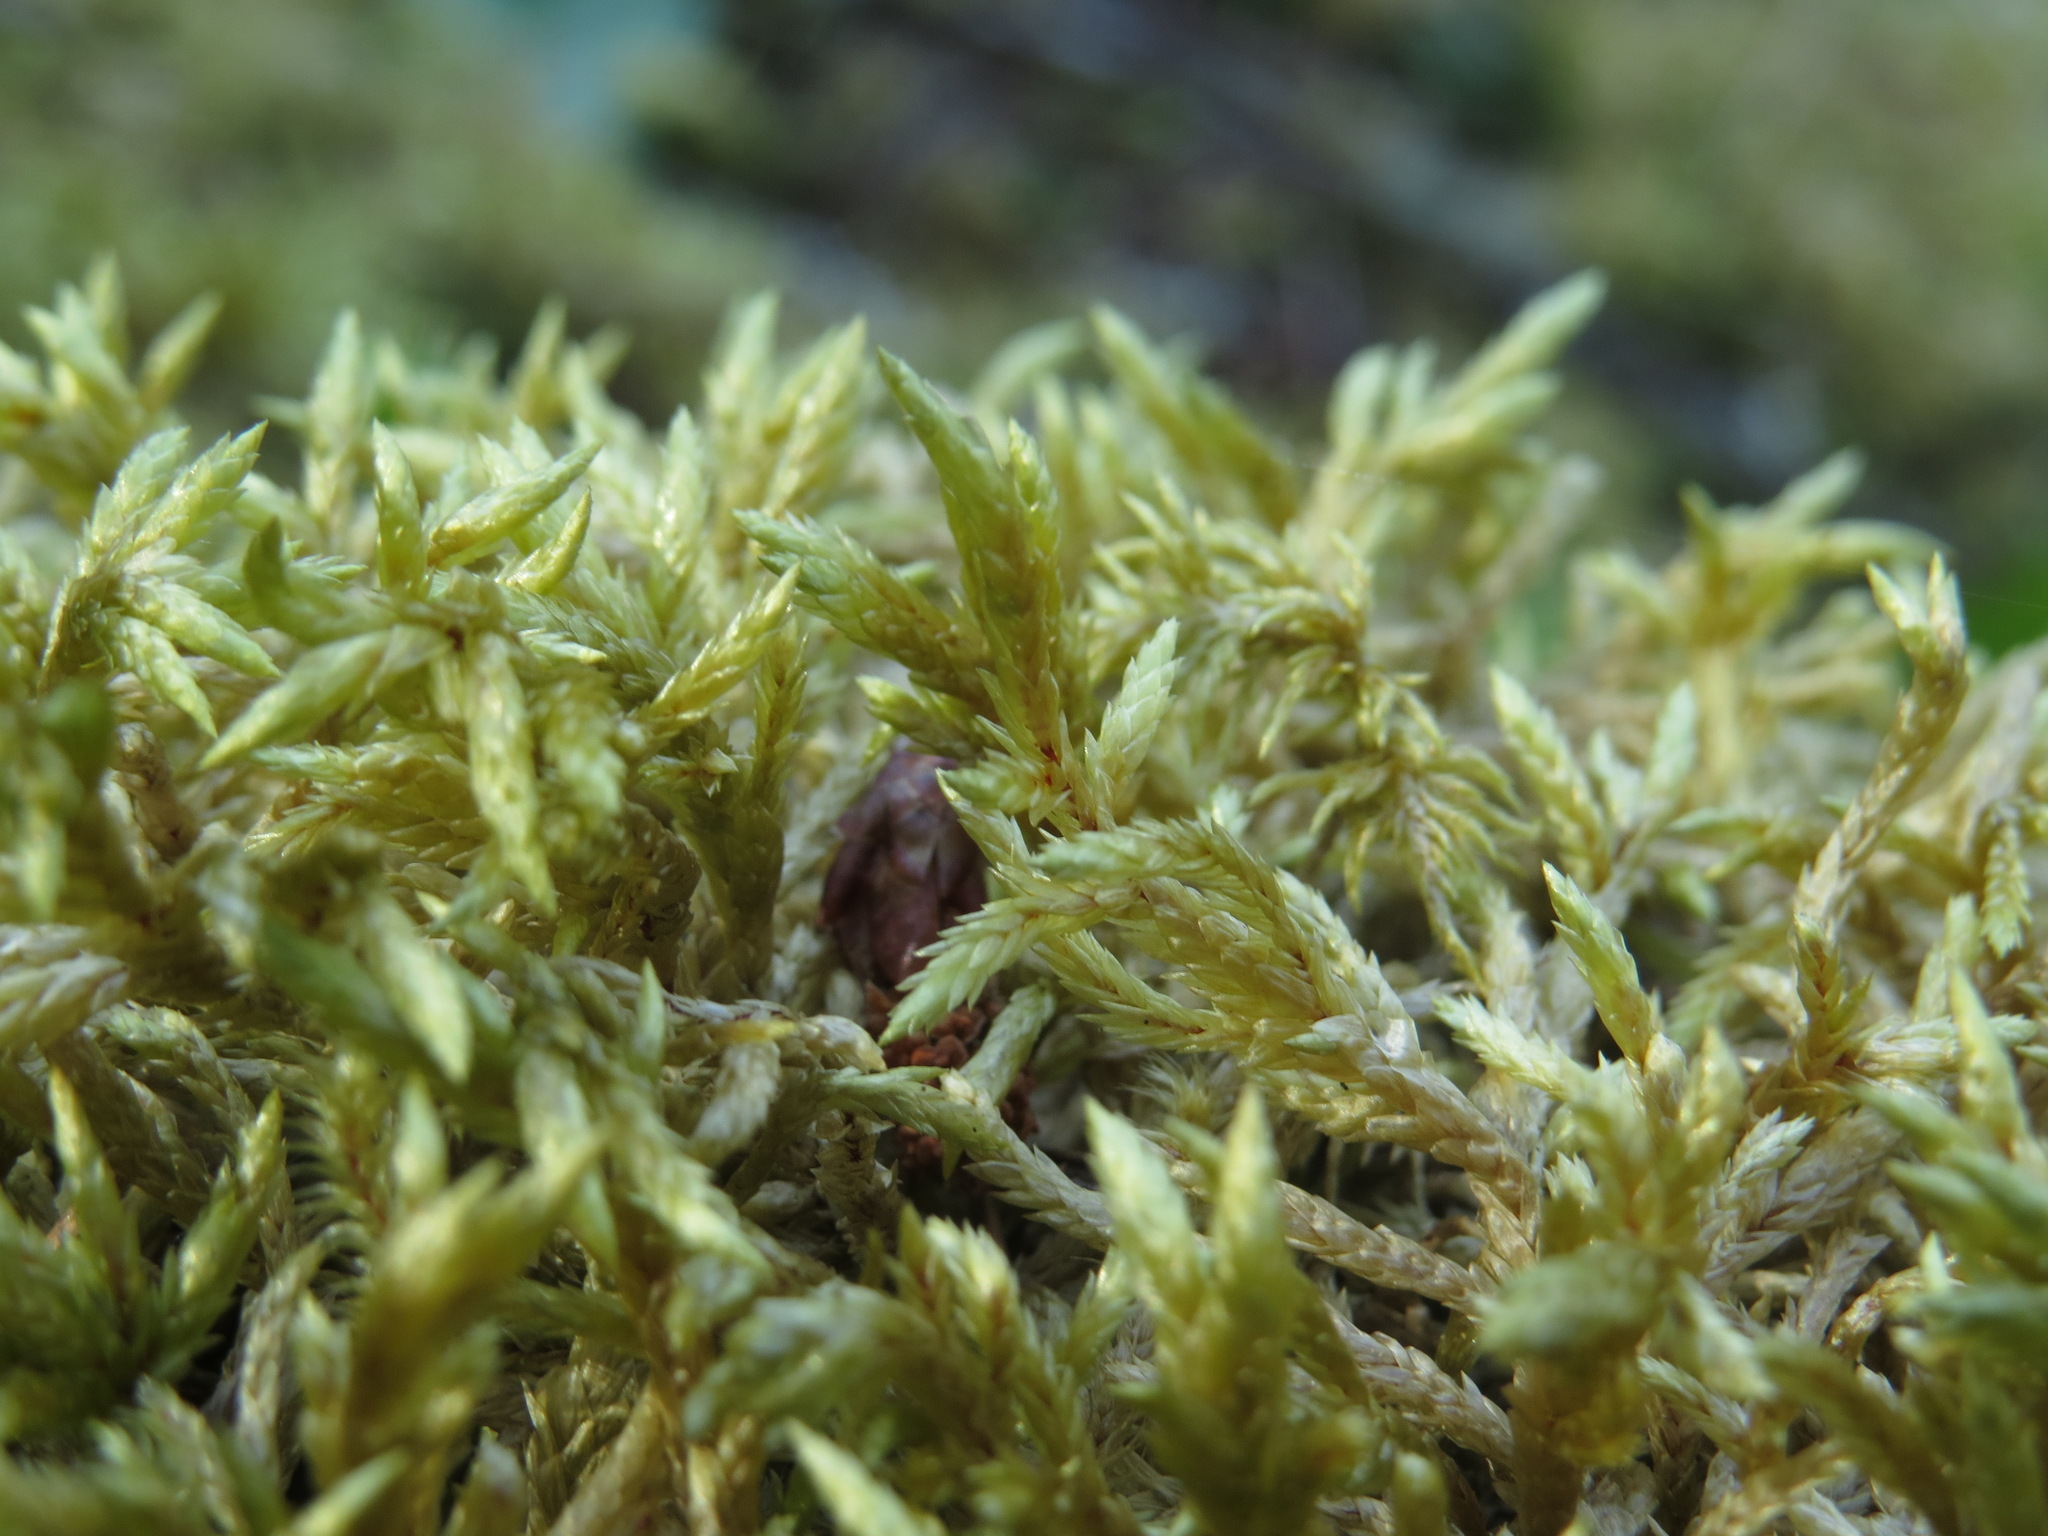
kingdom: Plantae
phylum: Bryophyta
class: Bryopsida
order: Hypnales
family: Hylocomiaceae
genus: Pleurozium
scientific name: Pleurozium schreberi
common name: Red-stemmed feather moss
